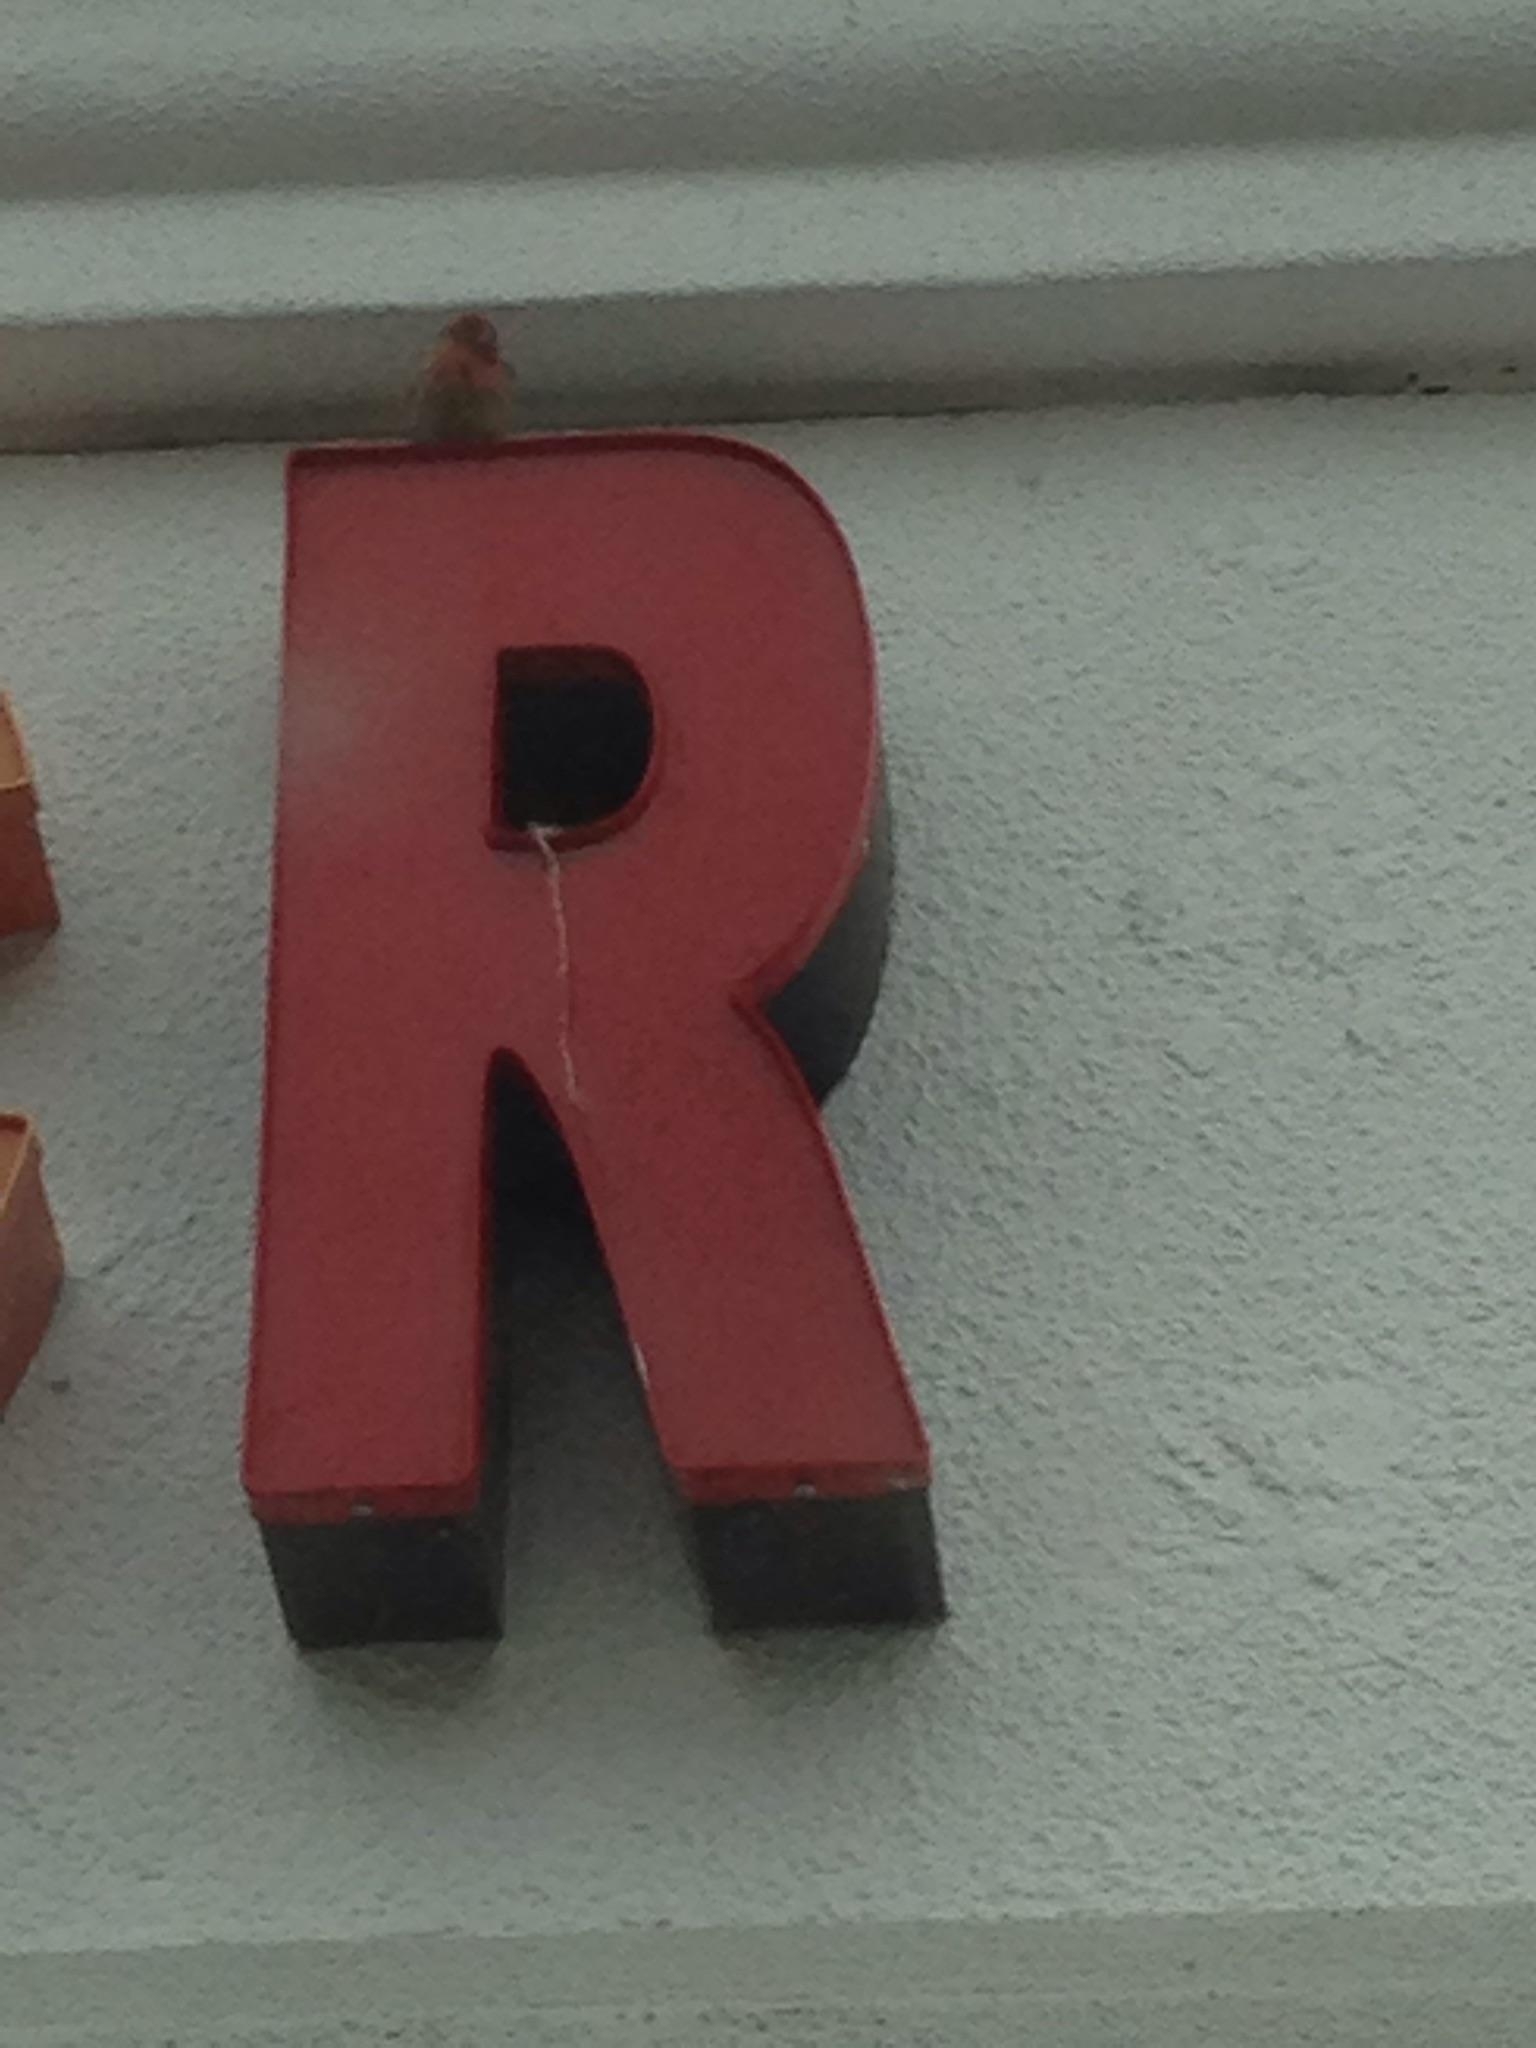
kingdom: Animalia
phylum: Chordata
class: Aves
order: Passeriformes
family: Fringillidae
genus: Haemorhous
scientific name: Haemorhous mexicanus
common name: House finch
